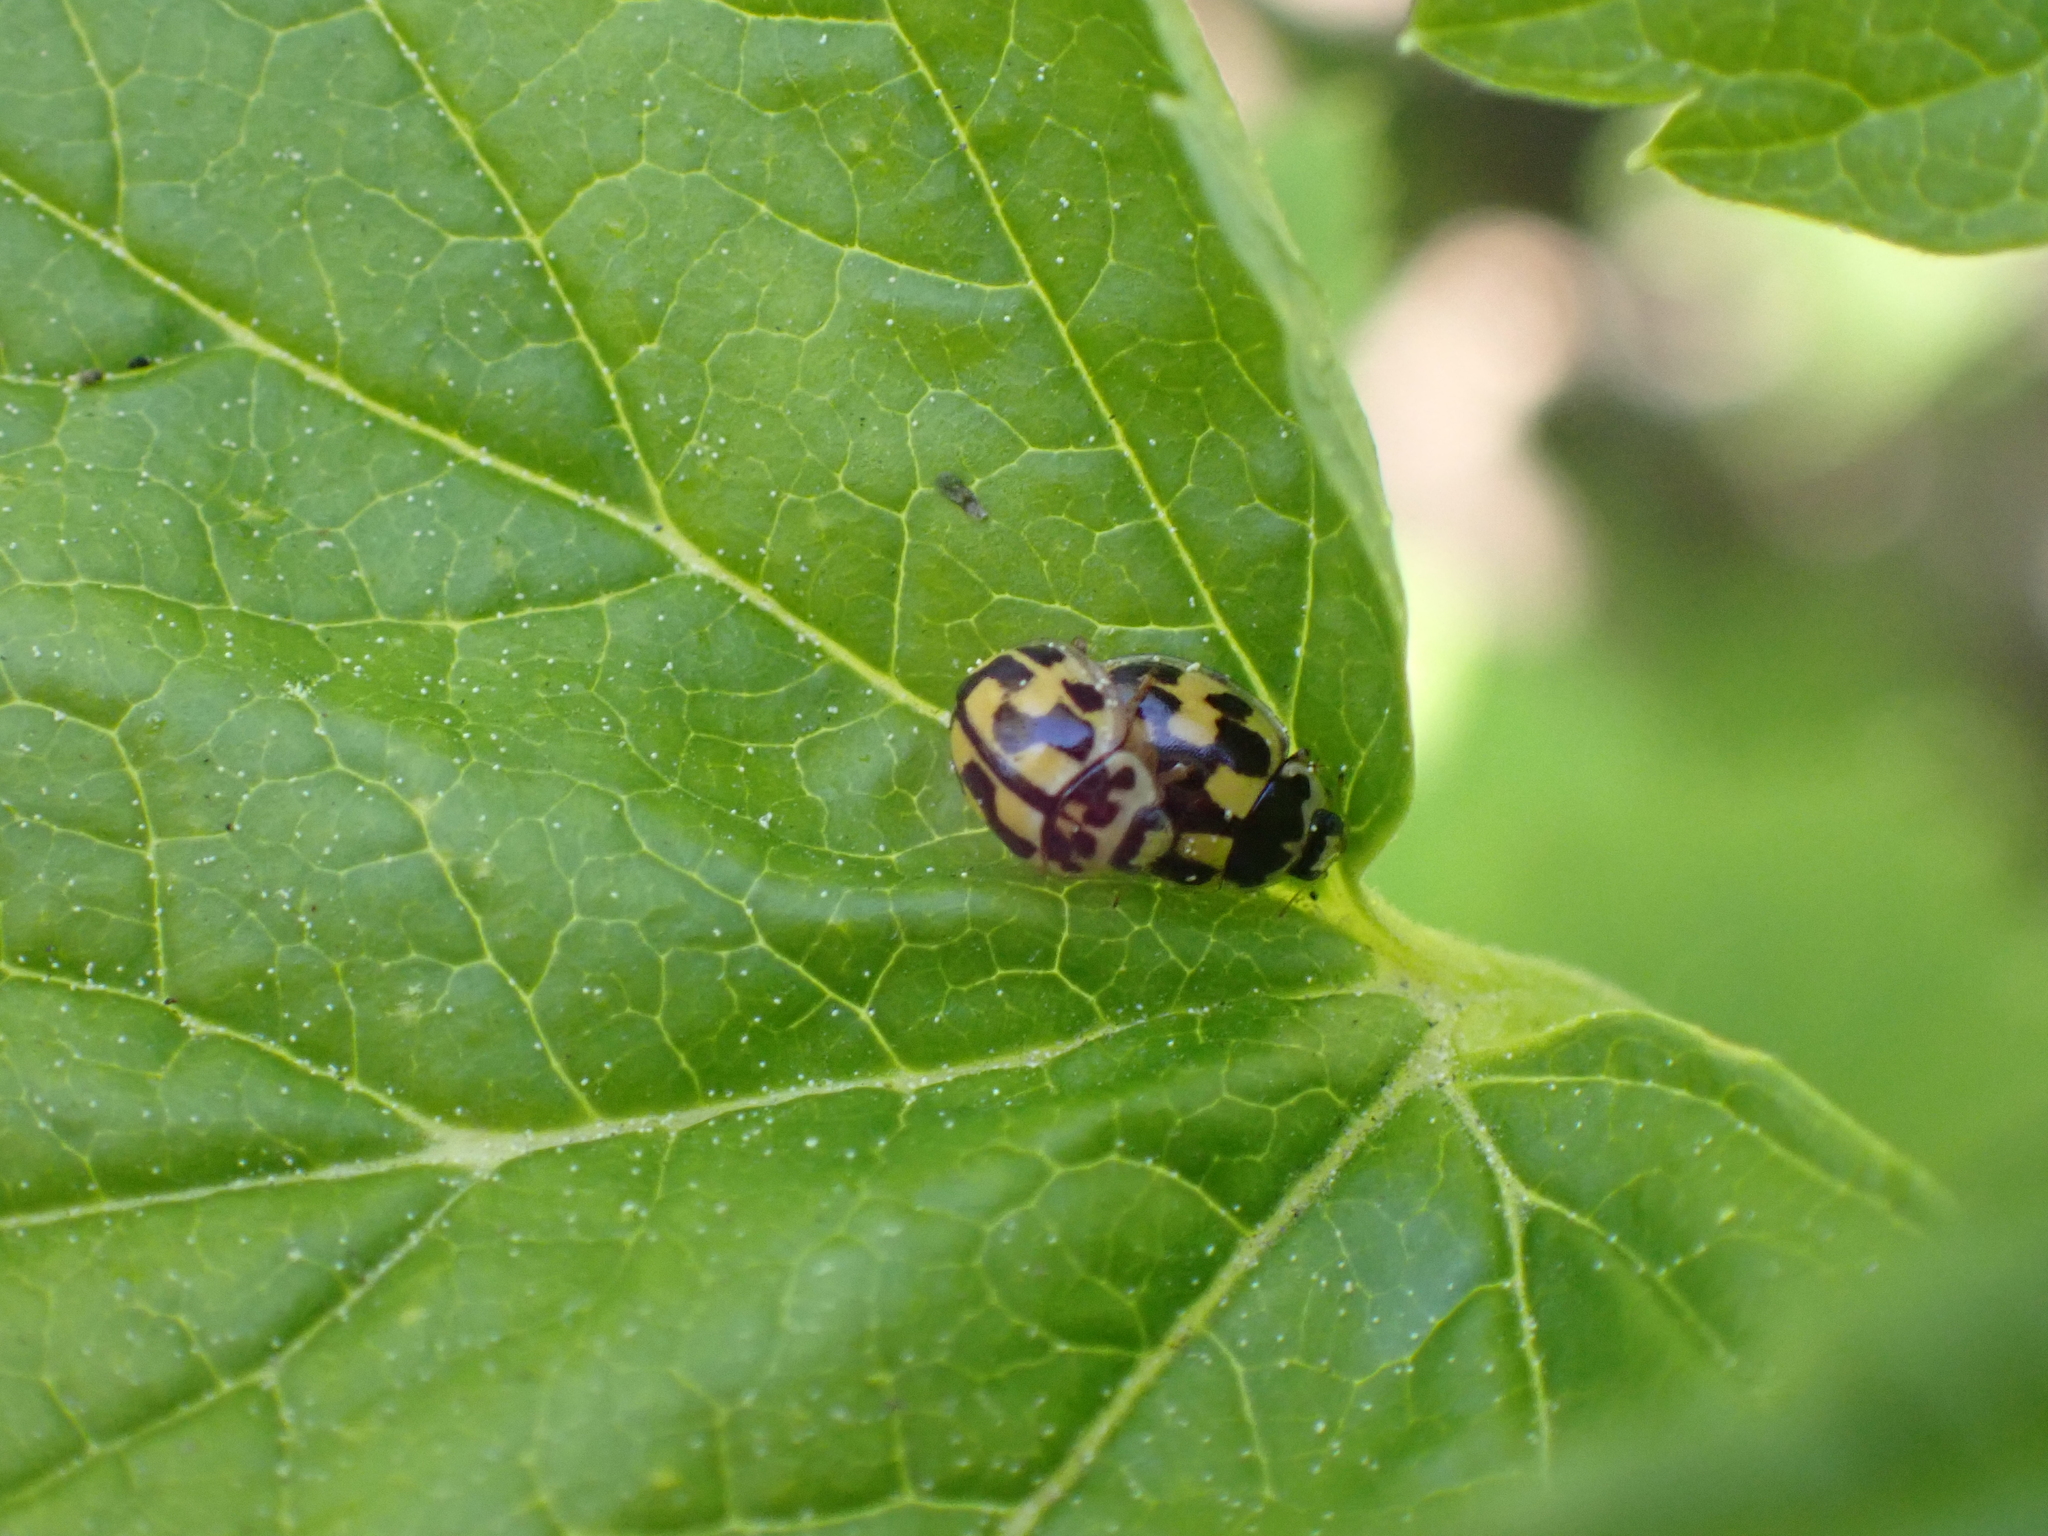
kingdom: Animalia
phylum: Arthropoda
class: Insecta
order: Coleoptera
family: Coccinellidae
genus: Propylaea
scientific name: Propylaea quatuordecimpunctata
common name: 14-spotted ladybird beetle
